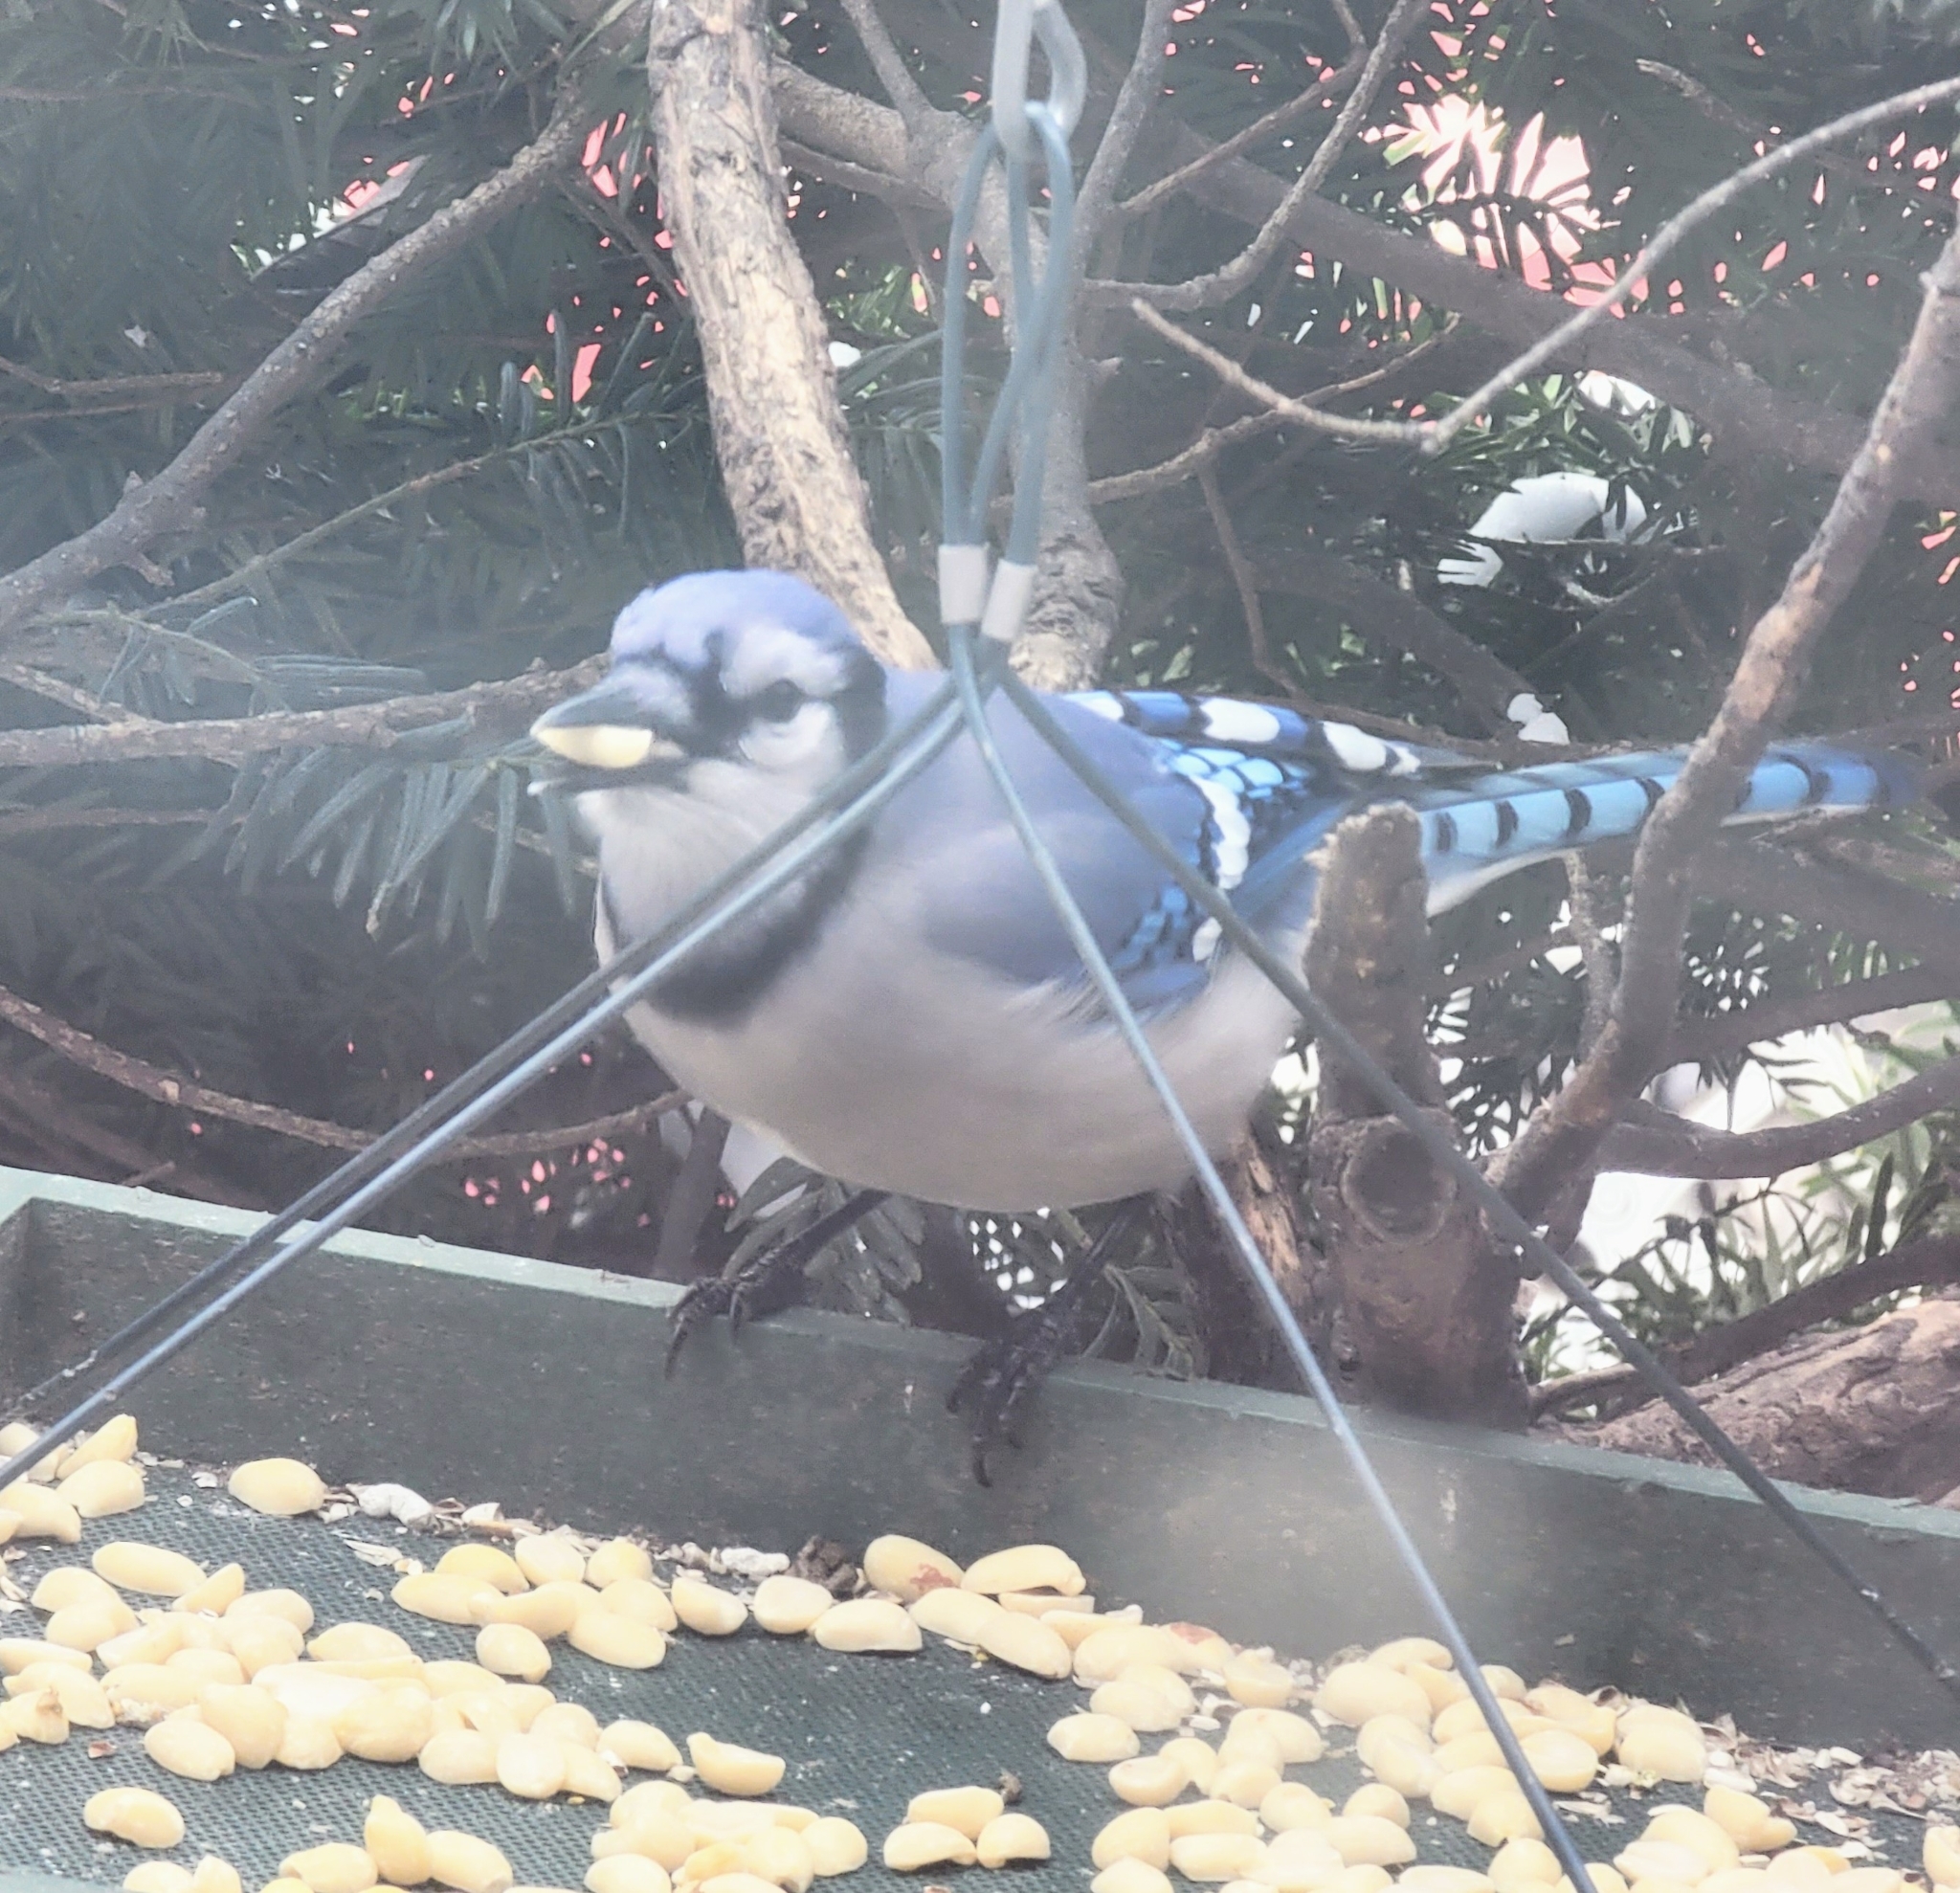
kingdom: Animalia
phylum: Chordata
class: Aves
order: Passeriformes
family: Corvidae
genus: Cyanocitta
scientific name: Cyanocitta cristata
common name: Blue jay
